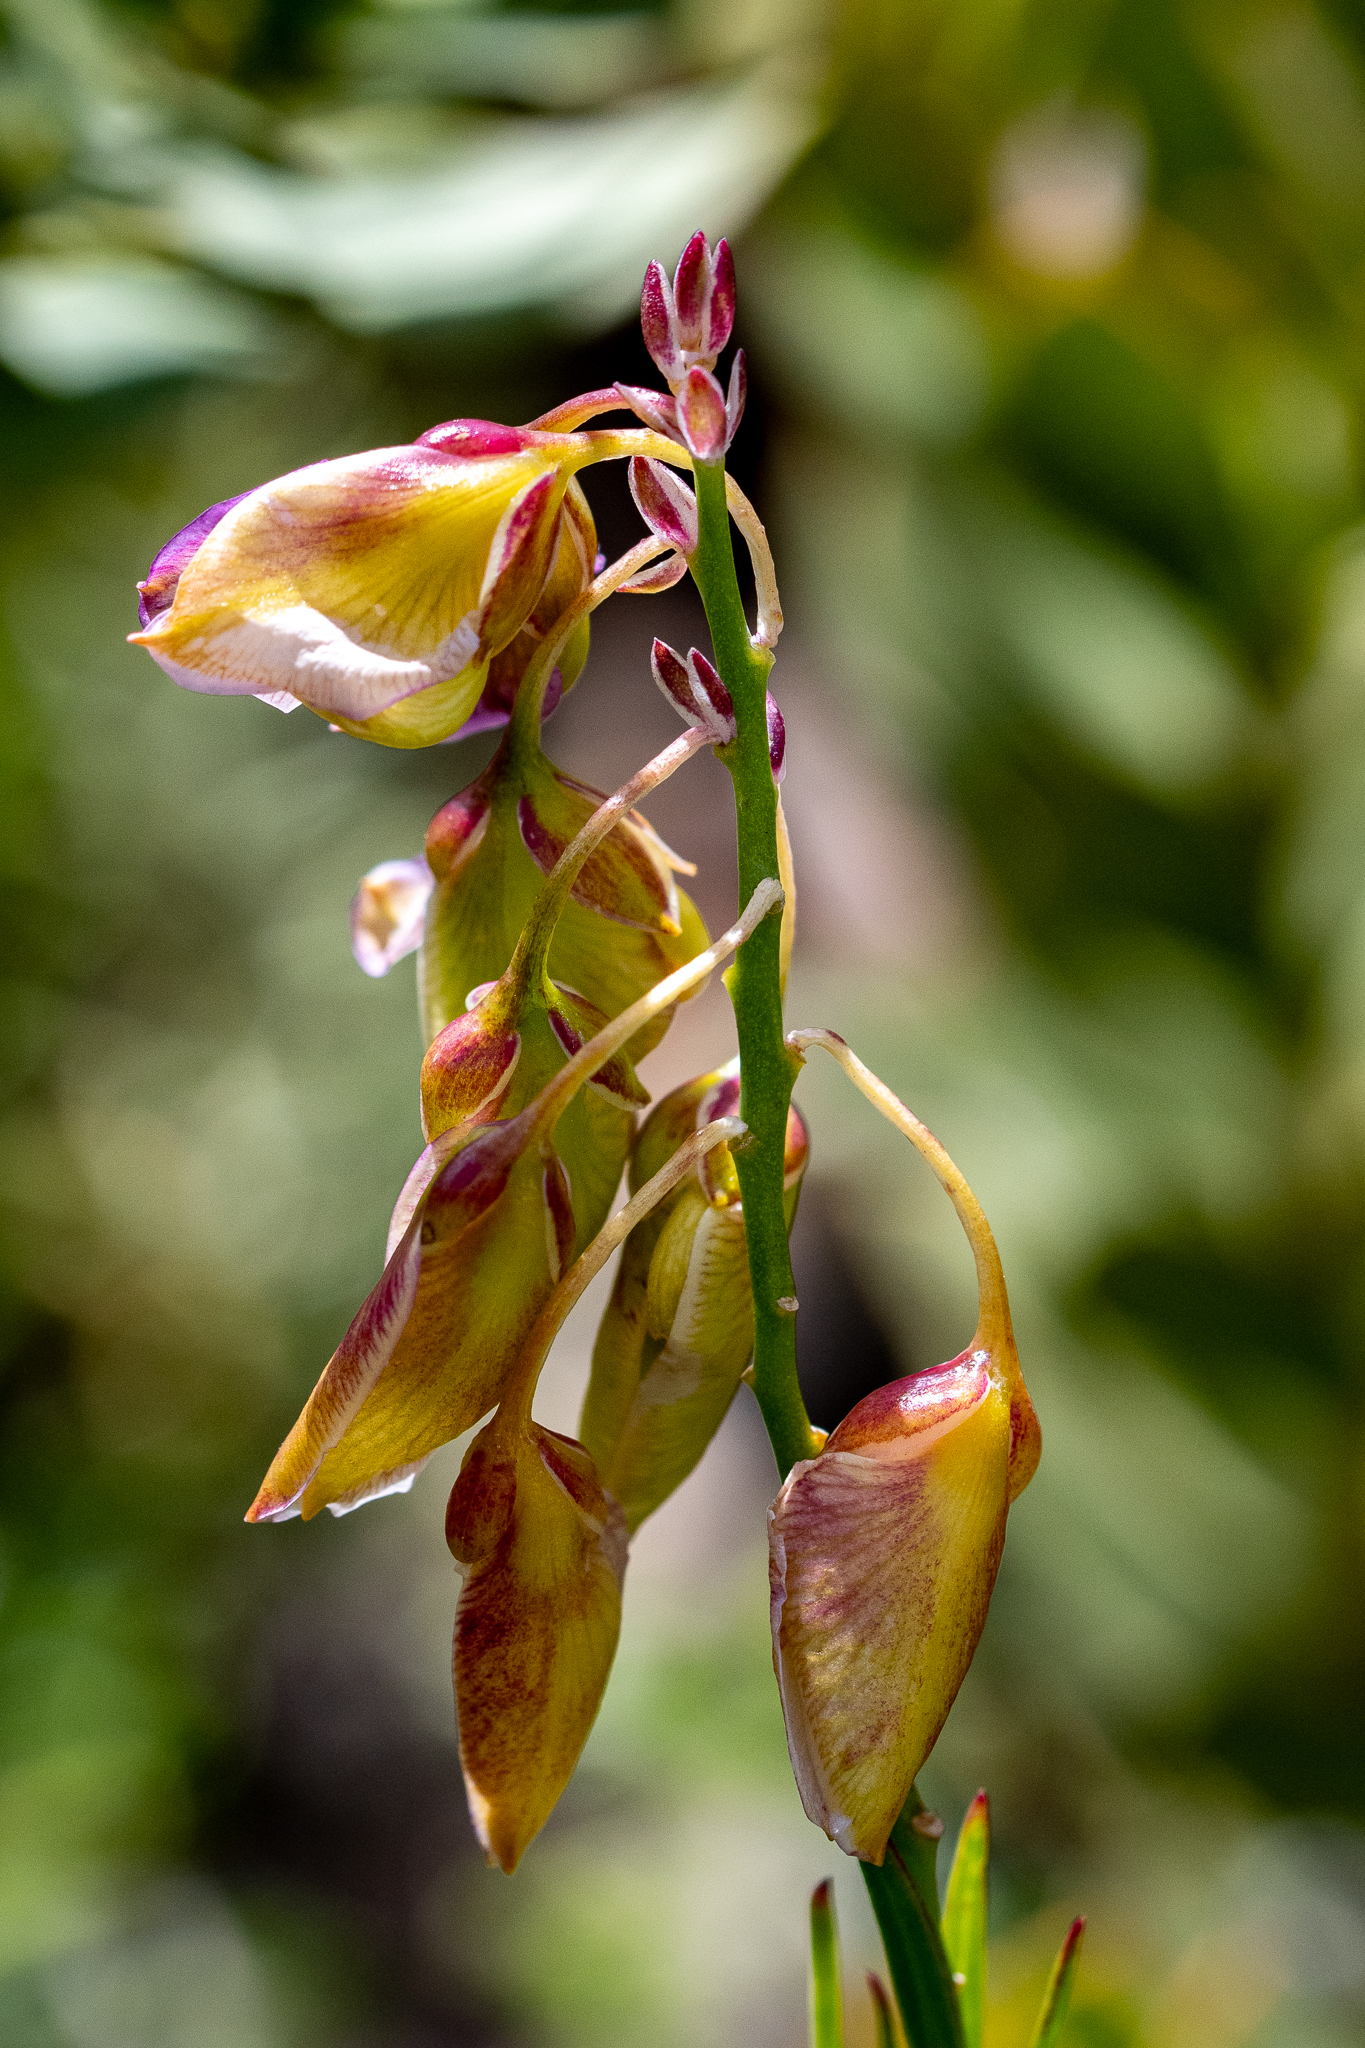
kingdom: Plantae
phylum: Tracheophyta
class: Magnoliopsida
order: Fabales
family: Polygalaceae
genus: Polygala
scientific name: Polygala bracteolata
